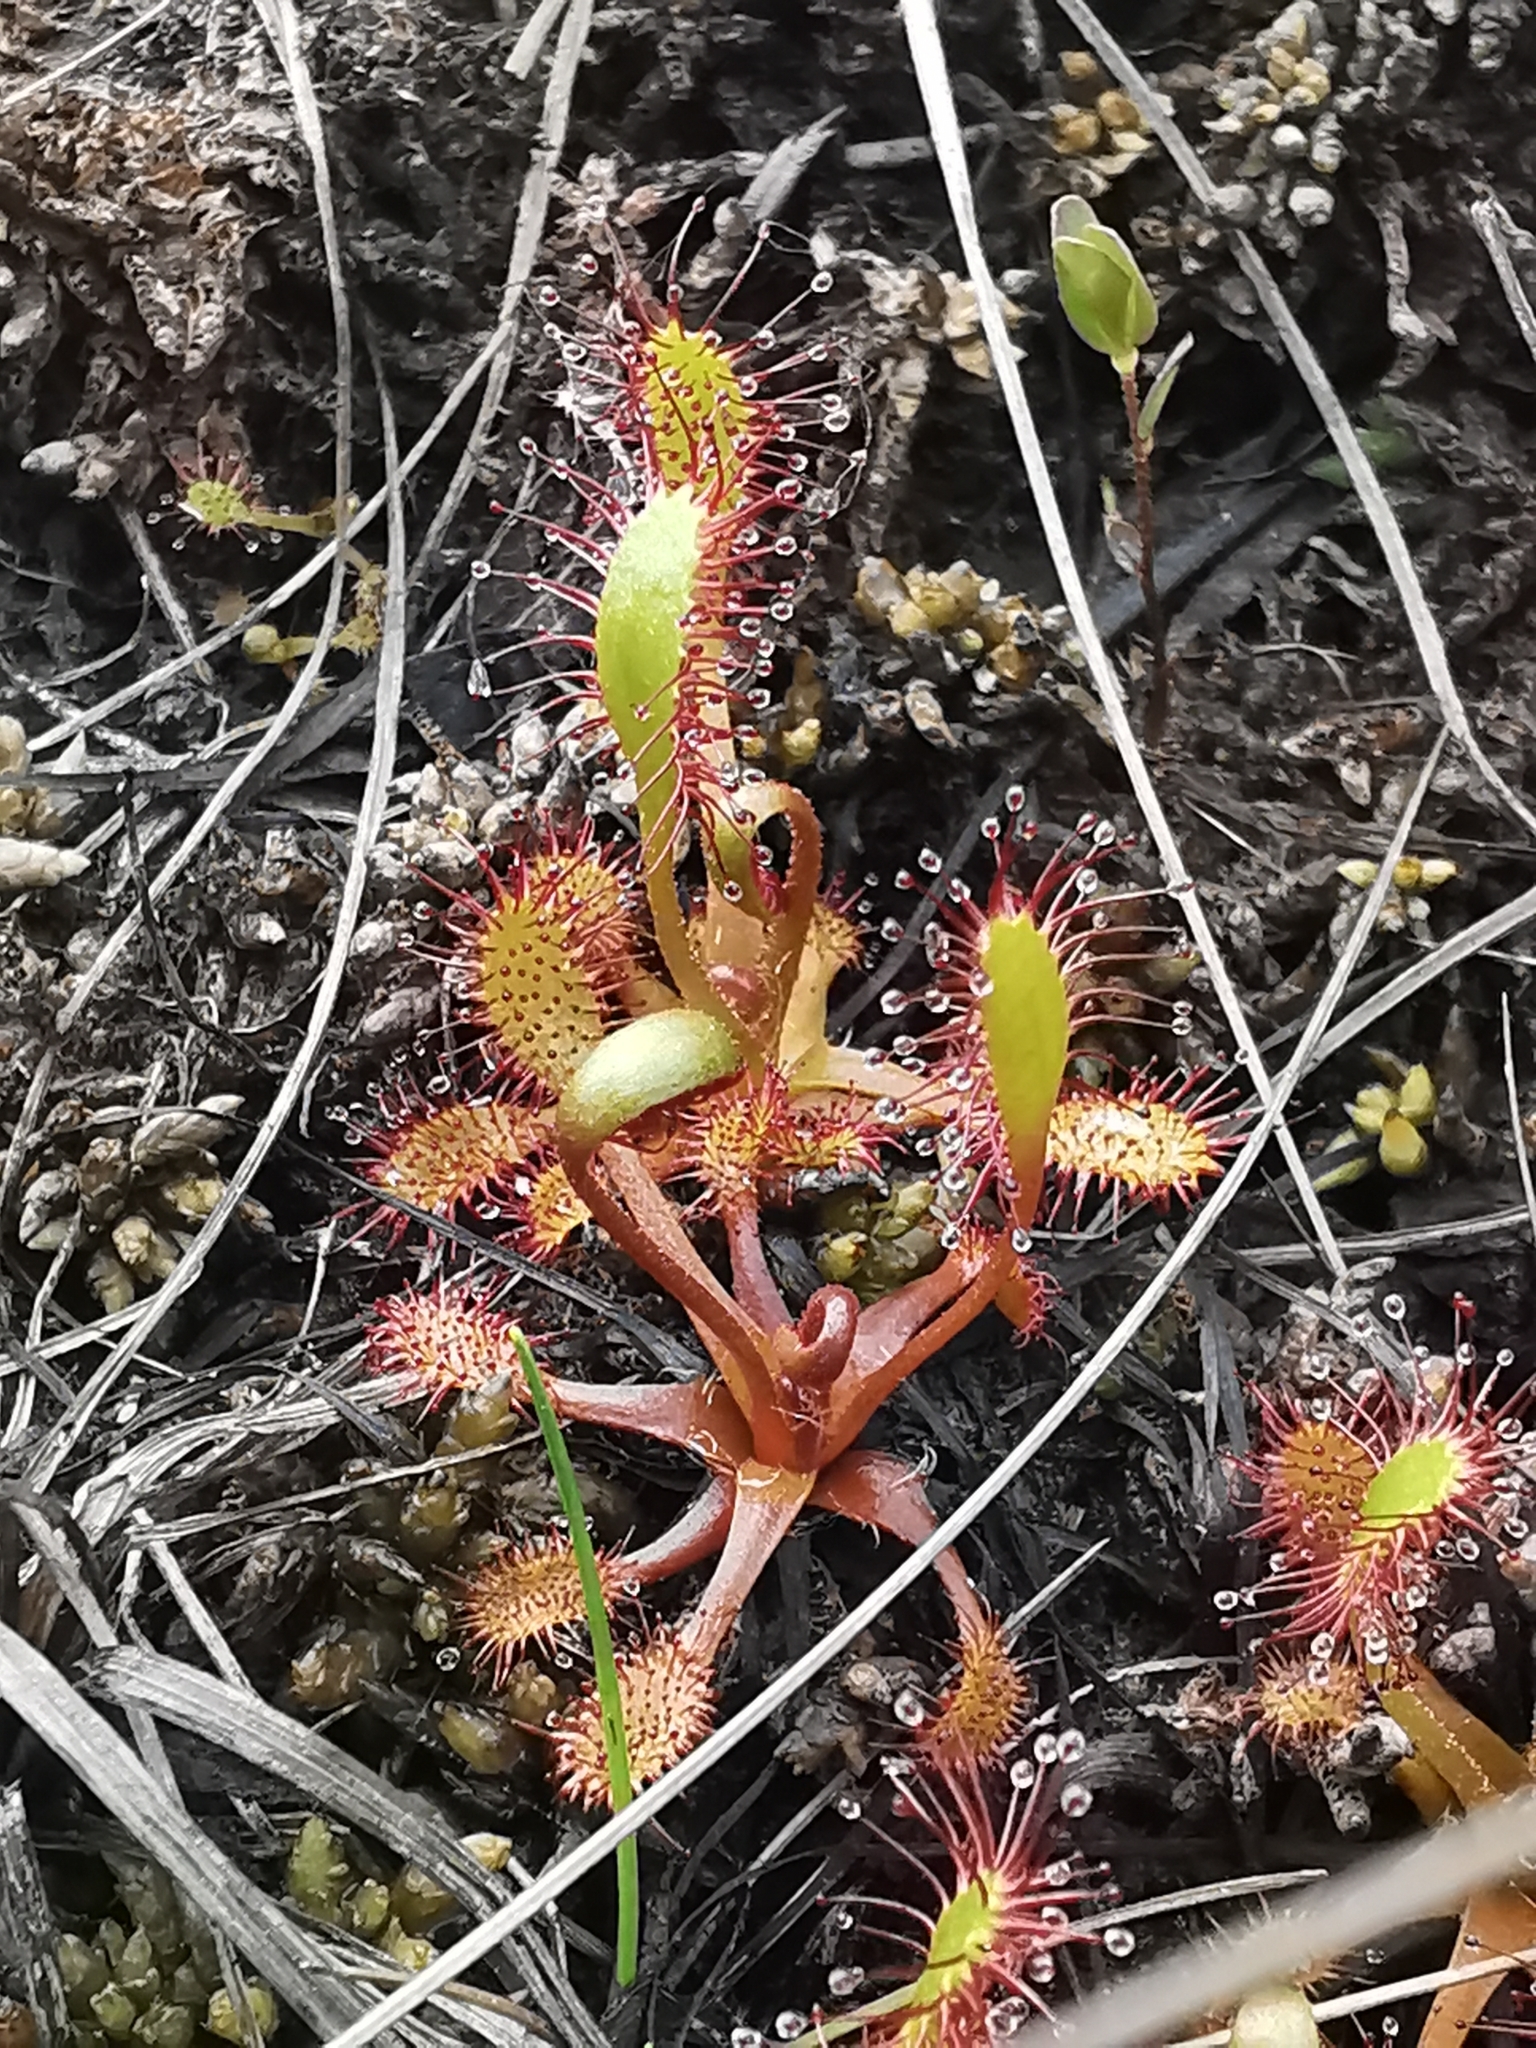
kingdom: Plantae
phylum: Tracheophyta
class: Magnoliopsida
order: Caryophyllales
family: Droseraceae
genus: Drosera
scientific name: Drosera anglica
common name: Great sundew
